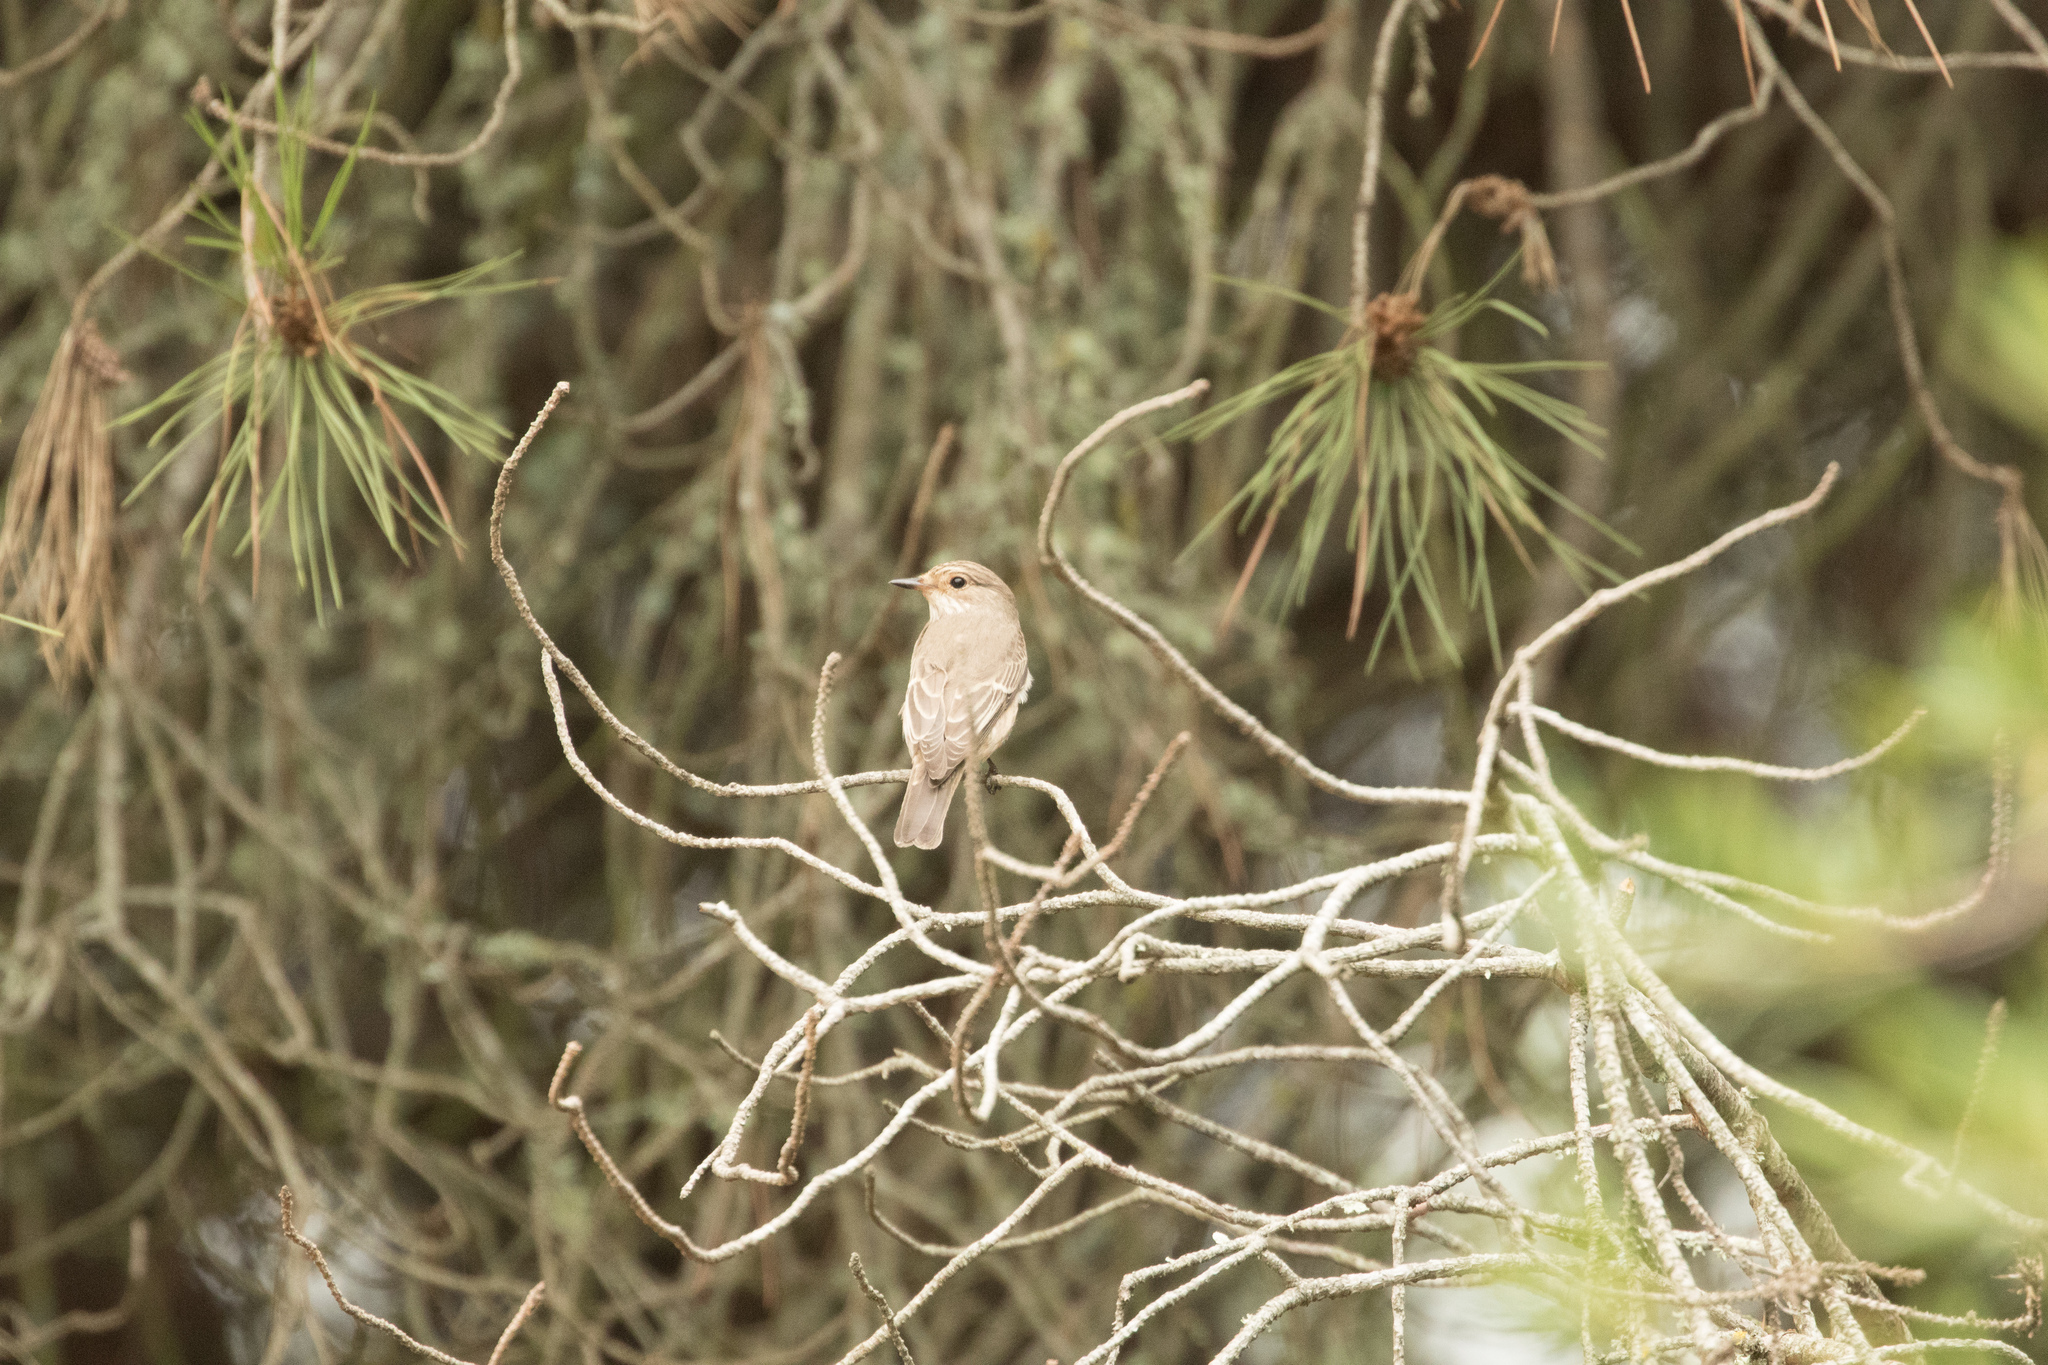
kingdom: Animalia
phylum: Chordata
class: Aves
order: Passeriformes
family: Muscicapidae
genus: Muscicapa
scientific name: Muscicapa striata
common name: Spotted flycatcher
